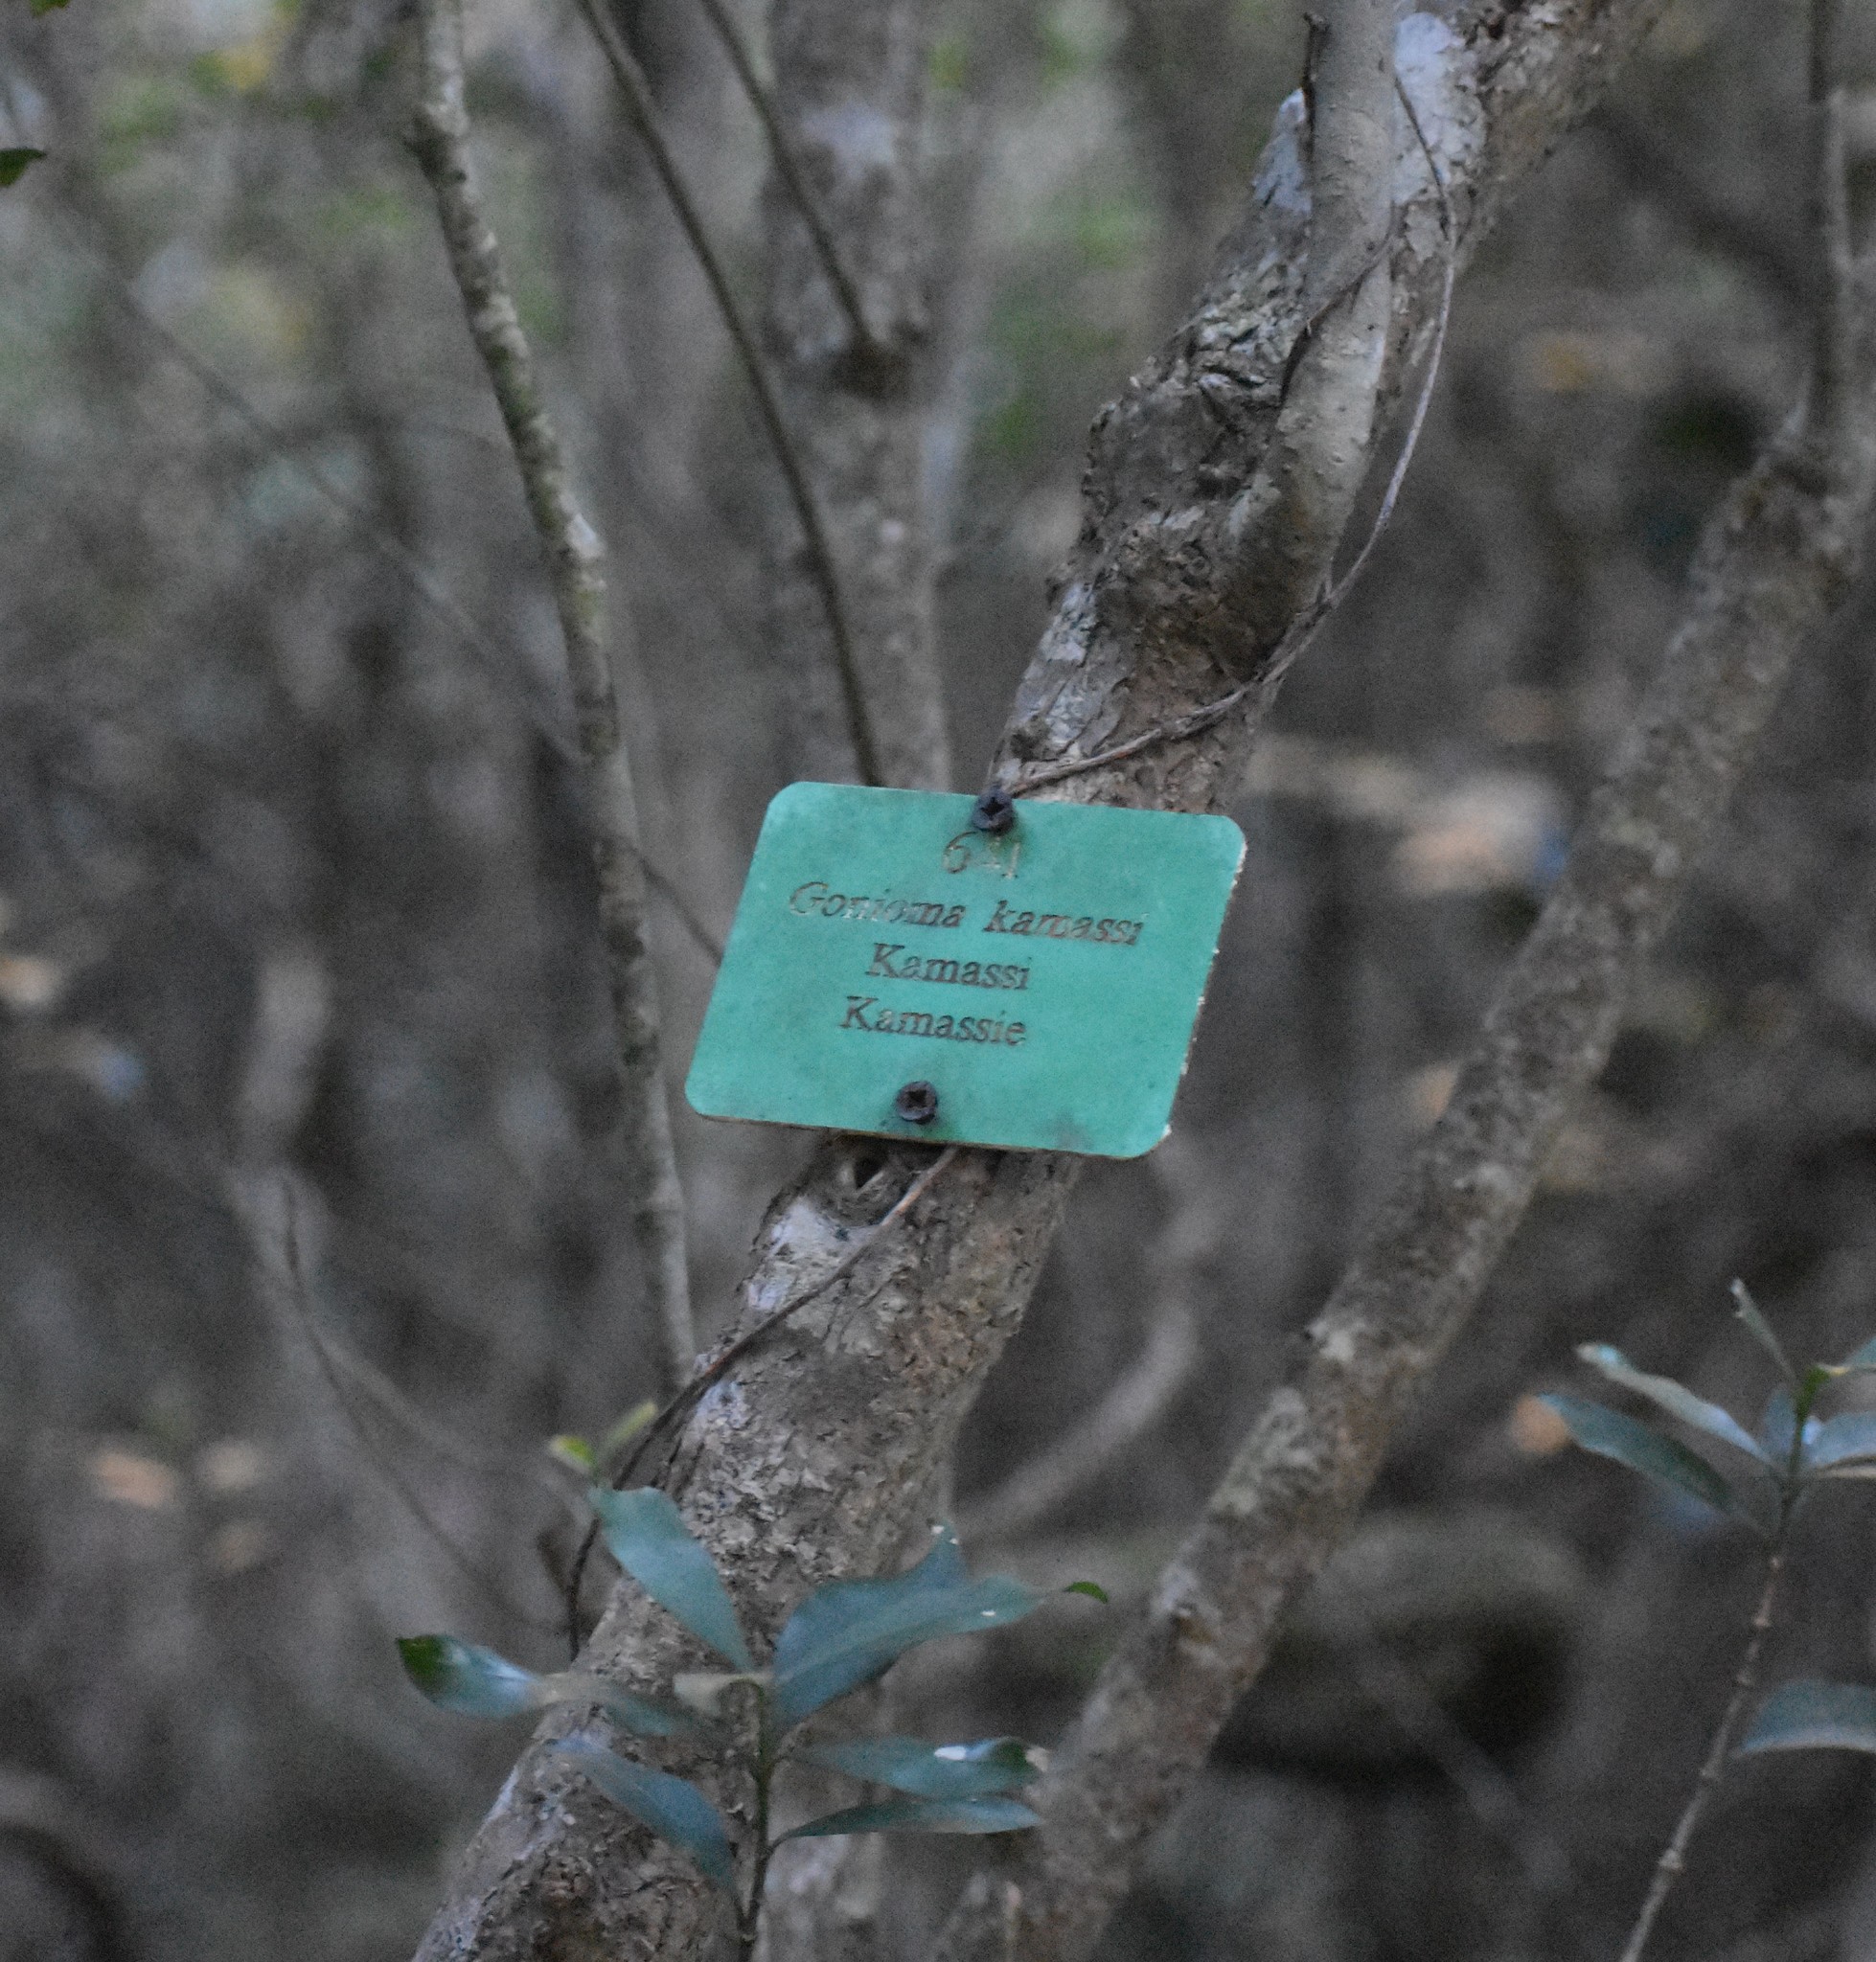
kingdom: Plantae
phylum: Tracheophyta
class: Magnoliopsida
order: Gentianales
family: Apocynaceae
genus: Gonioma
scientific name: Gonioma kamassi
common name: Kamassi
